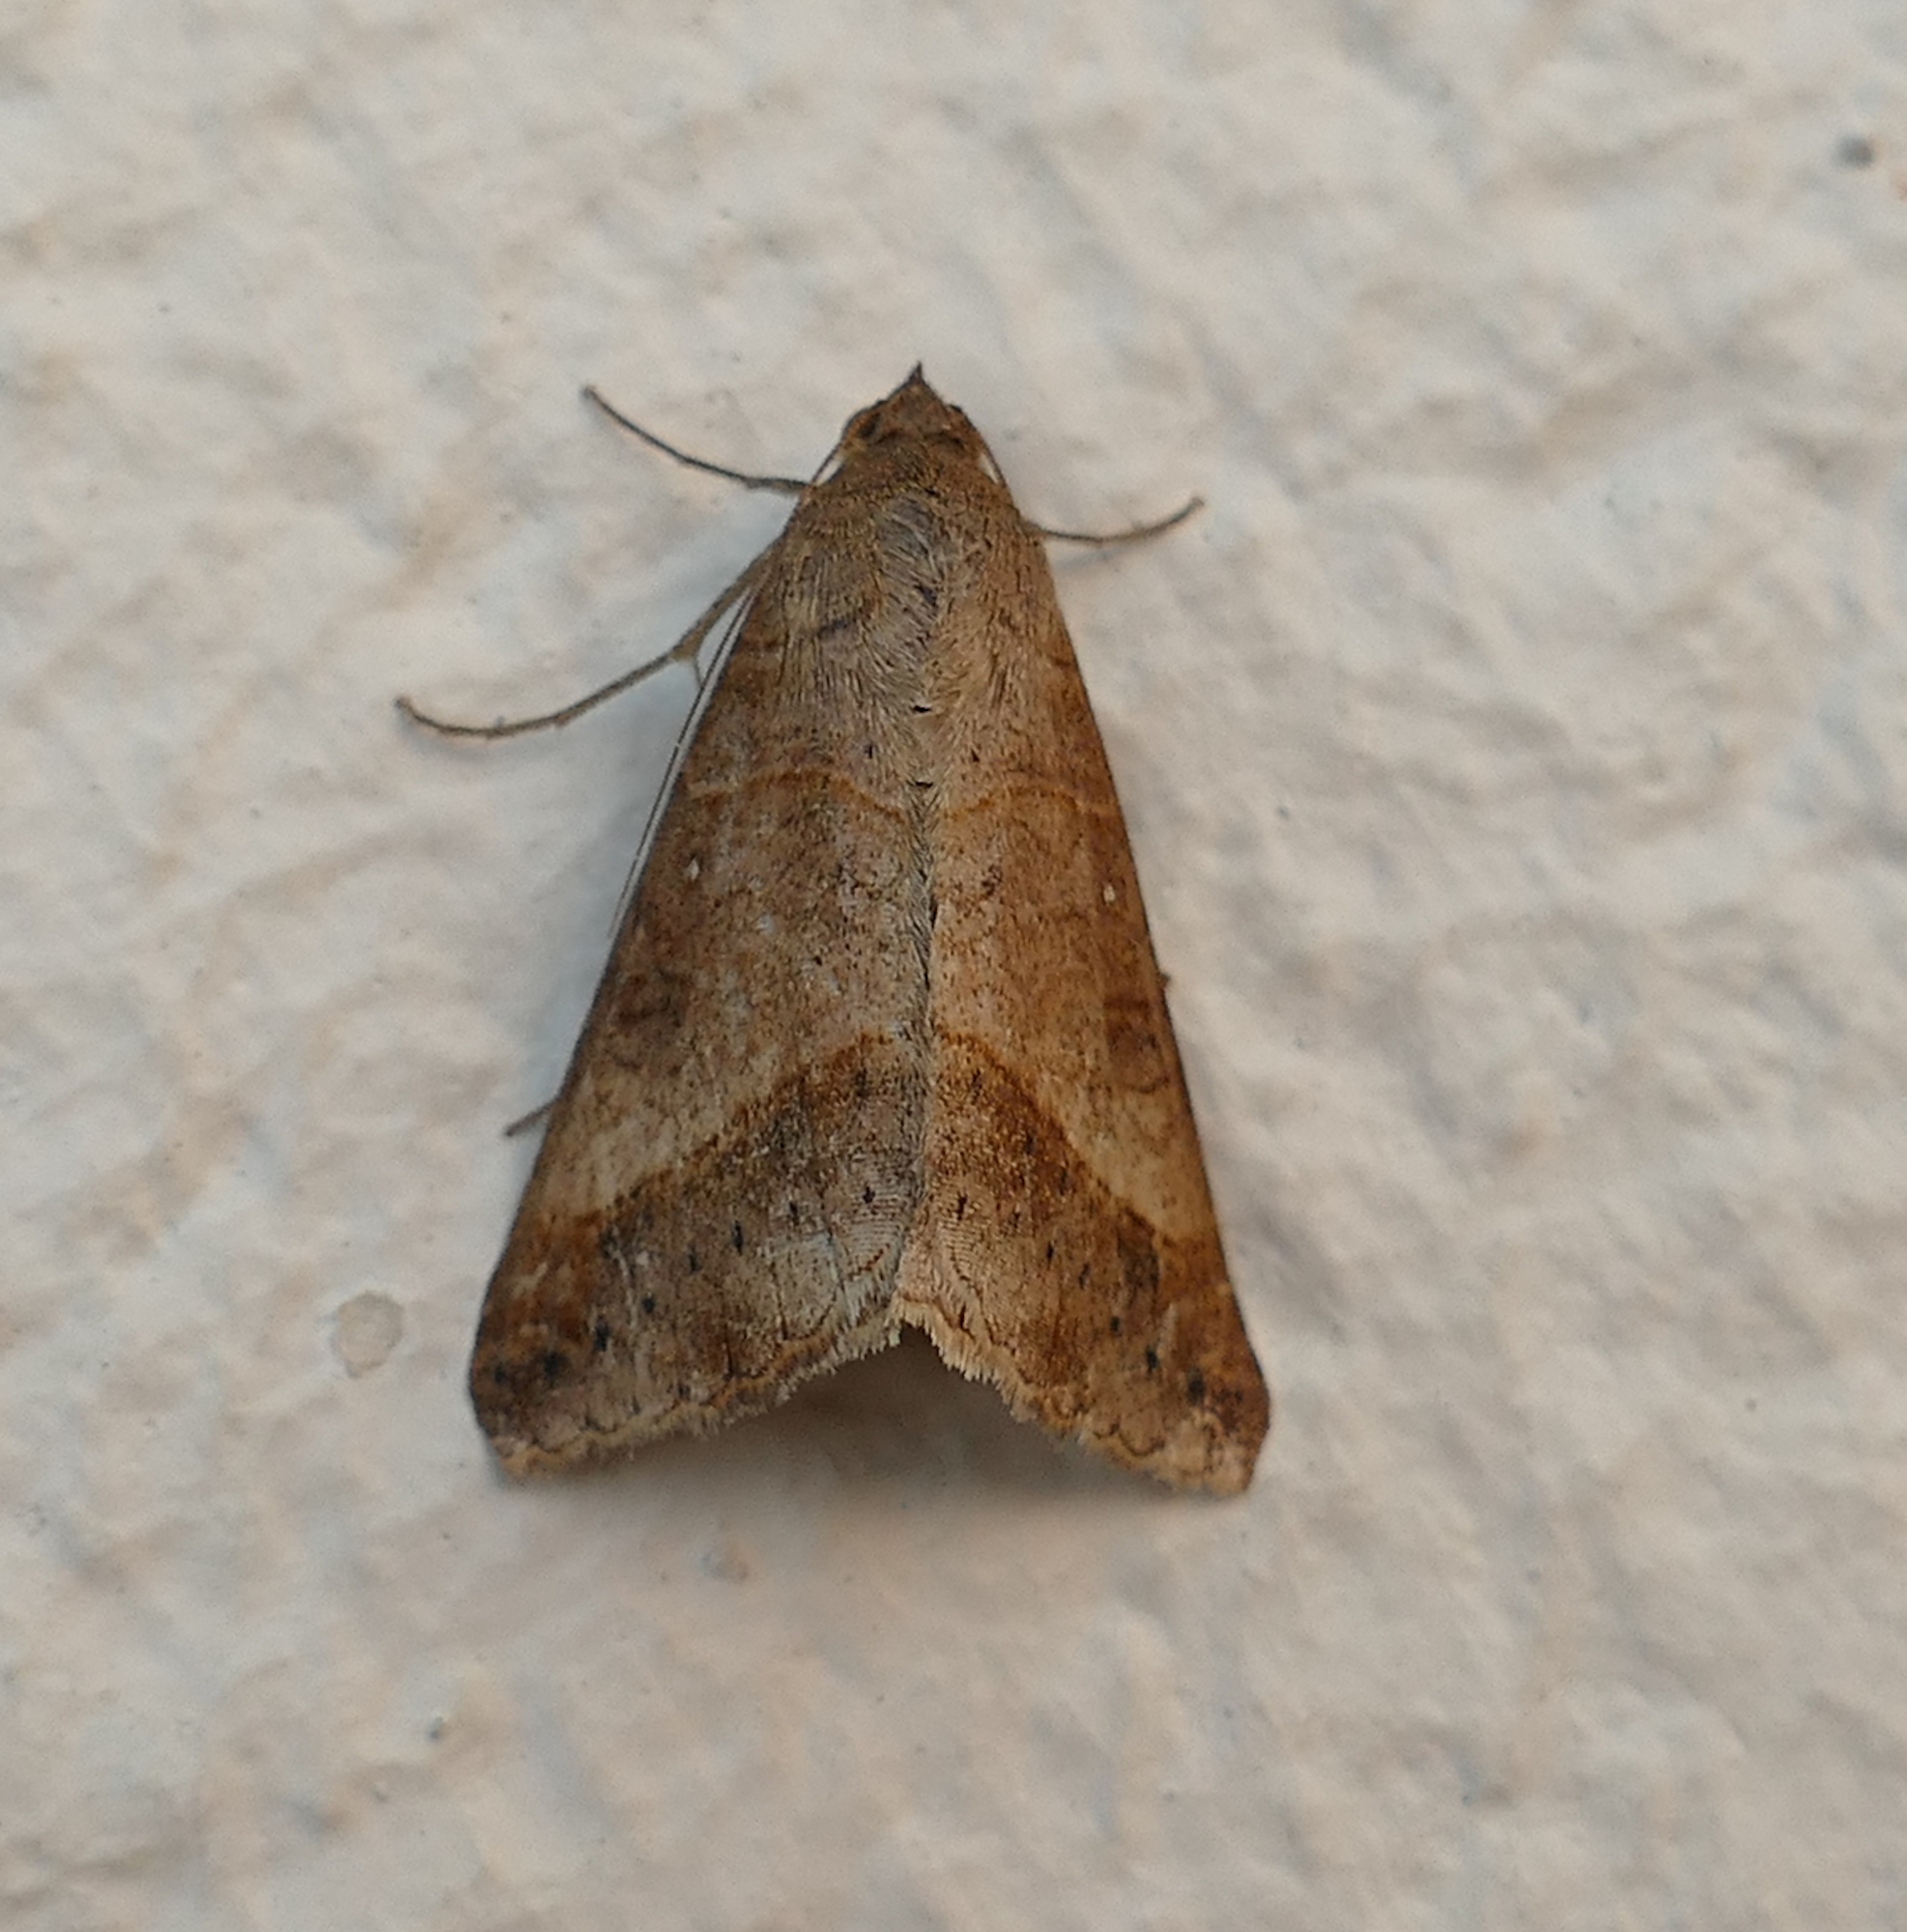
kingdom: Animalia
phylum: Arthropoda
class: Insecta
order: Lepidoptera
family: Erebidae
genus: Mocis
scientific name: Mocis latipes
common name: Striped grass looper
